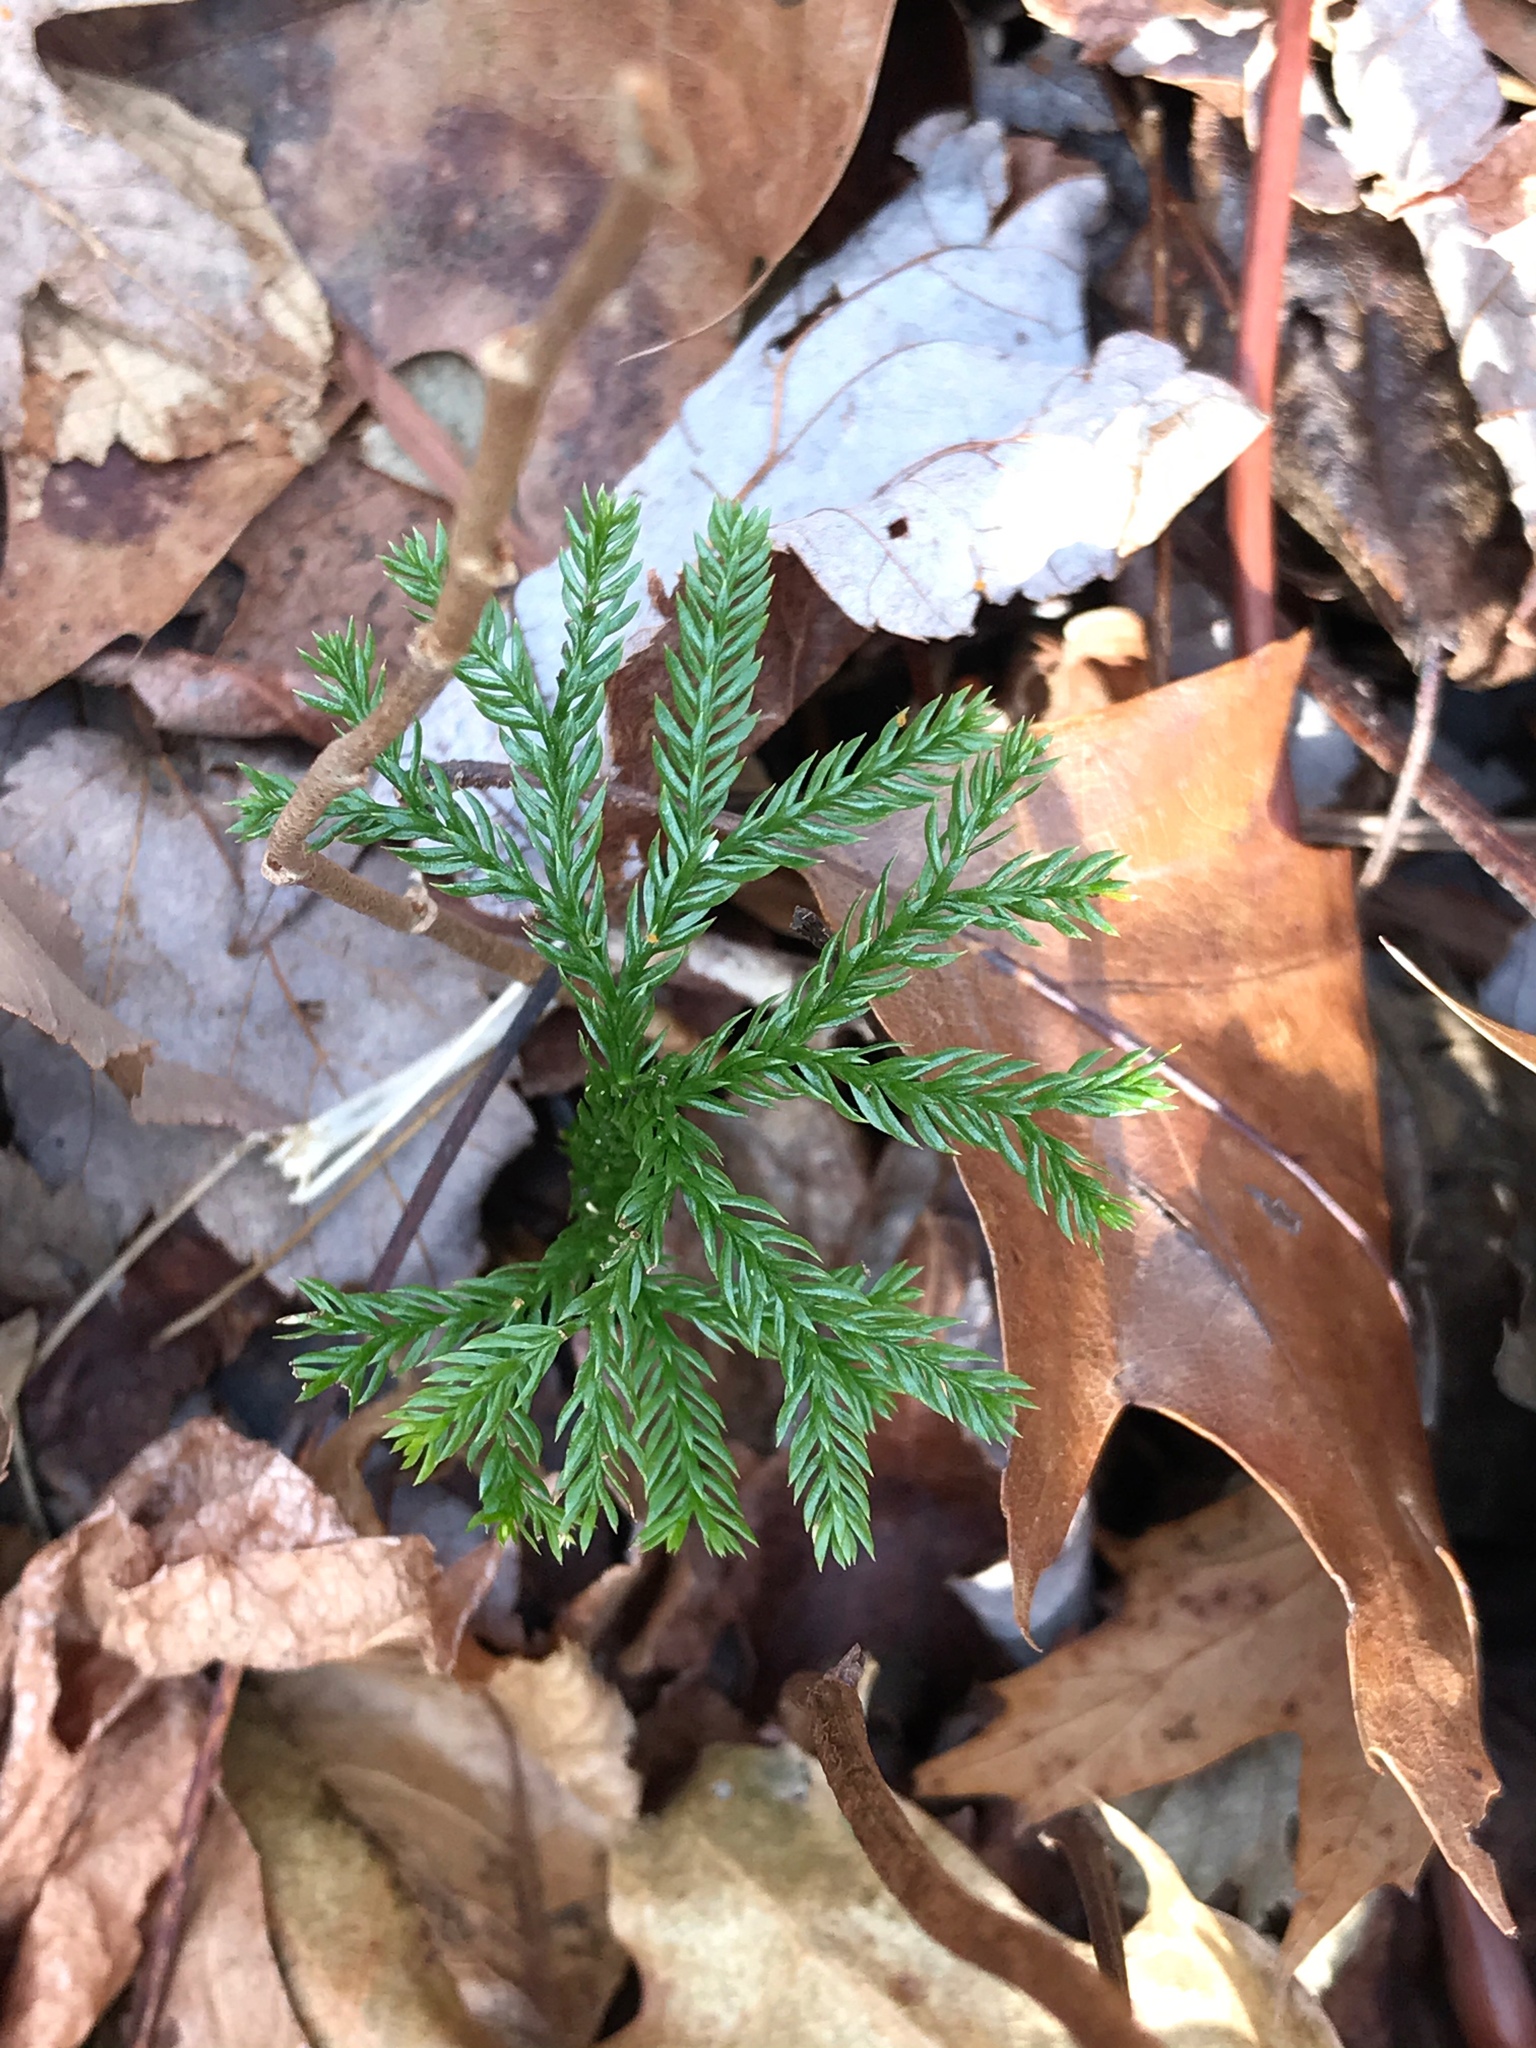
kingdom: Plantae
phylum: Tracheophyta
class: Lycopodiopsida
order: Lycopodiales
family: Lycopodiaceae
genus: Dendrolycopodium
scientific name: Dendrolycopodium obscurum
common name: Common ground-pine
